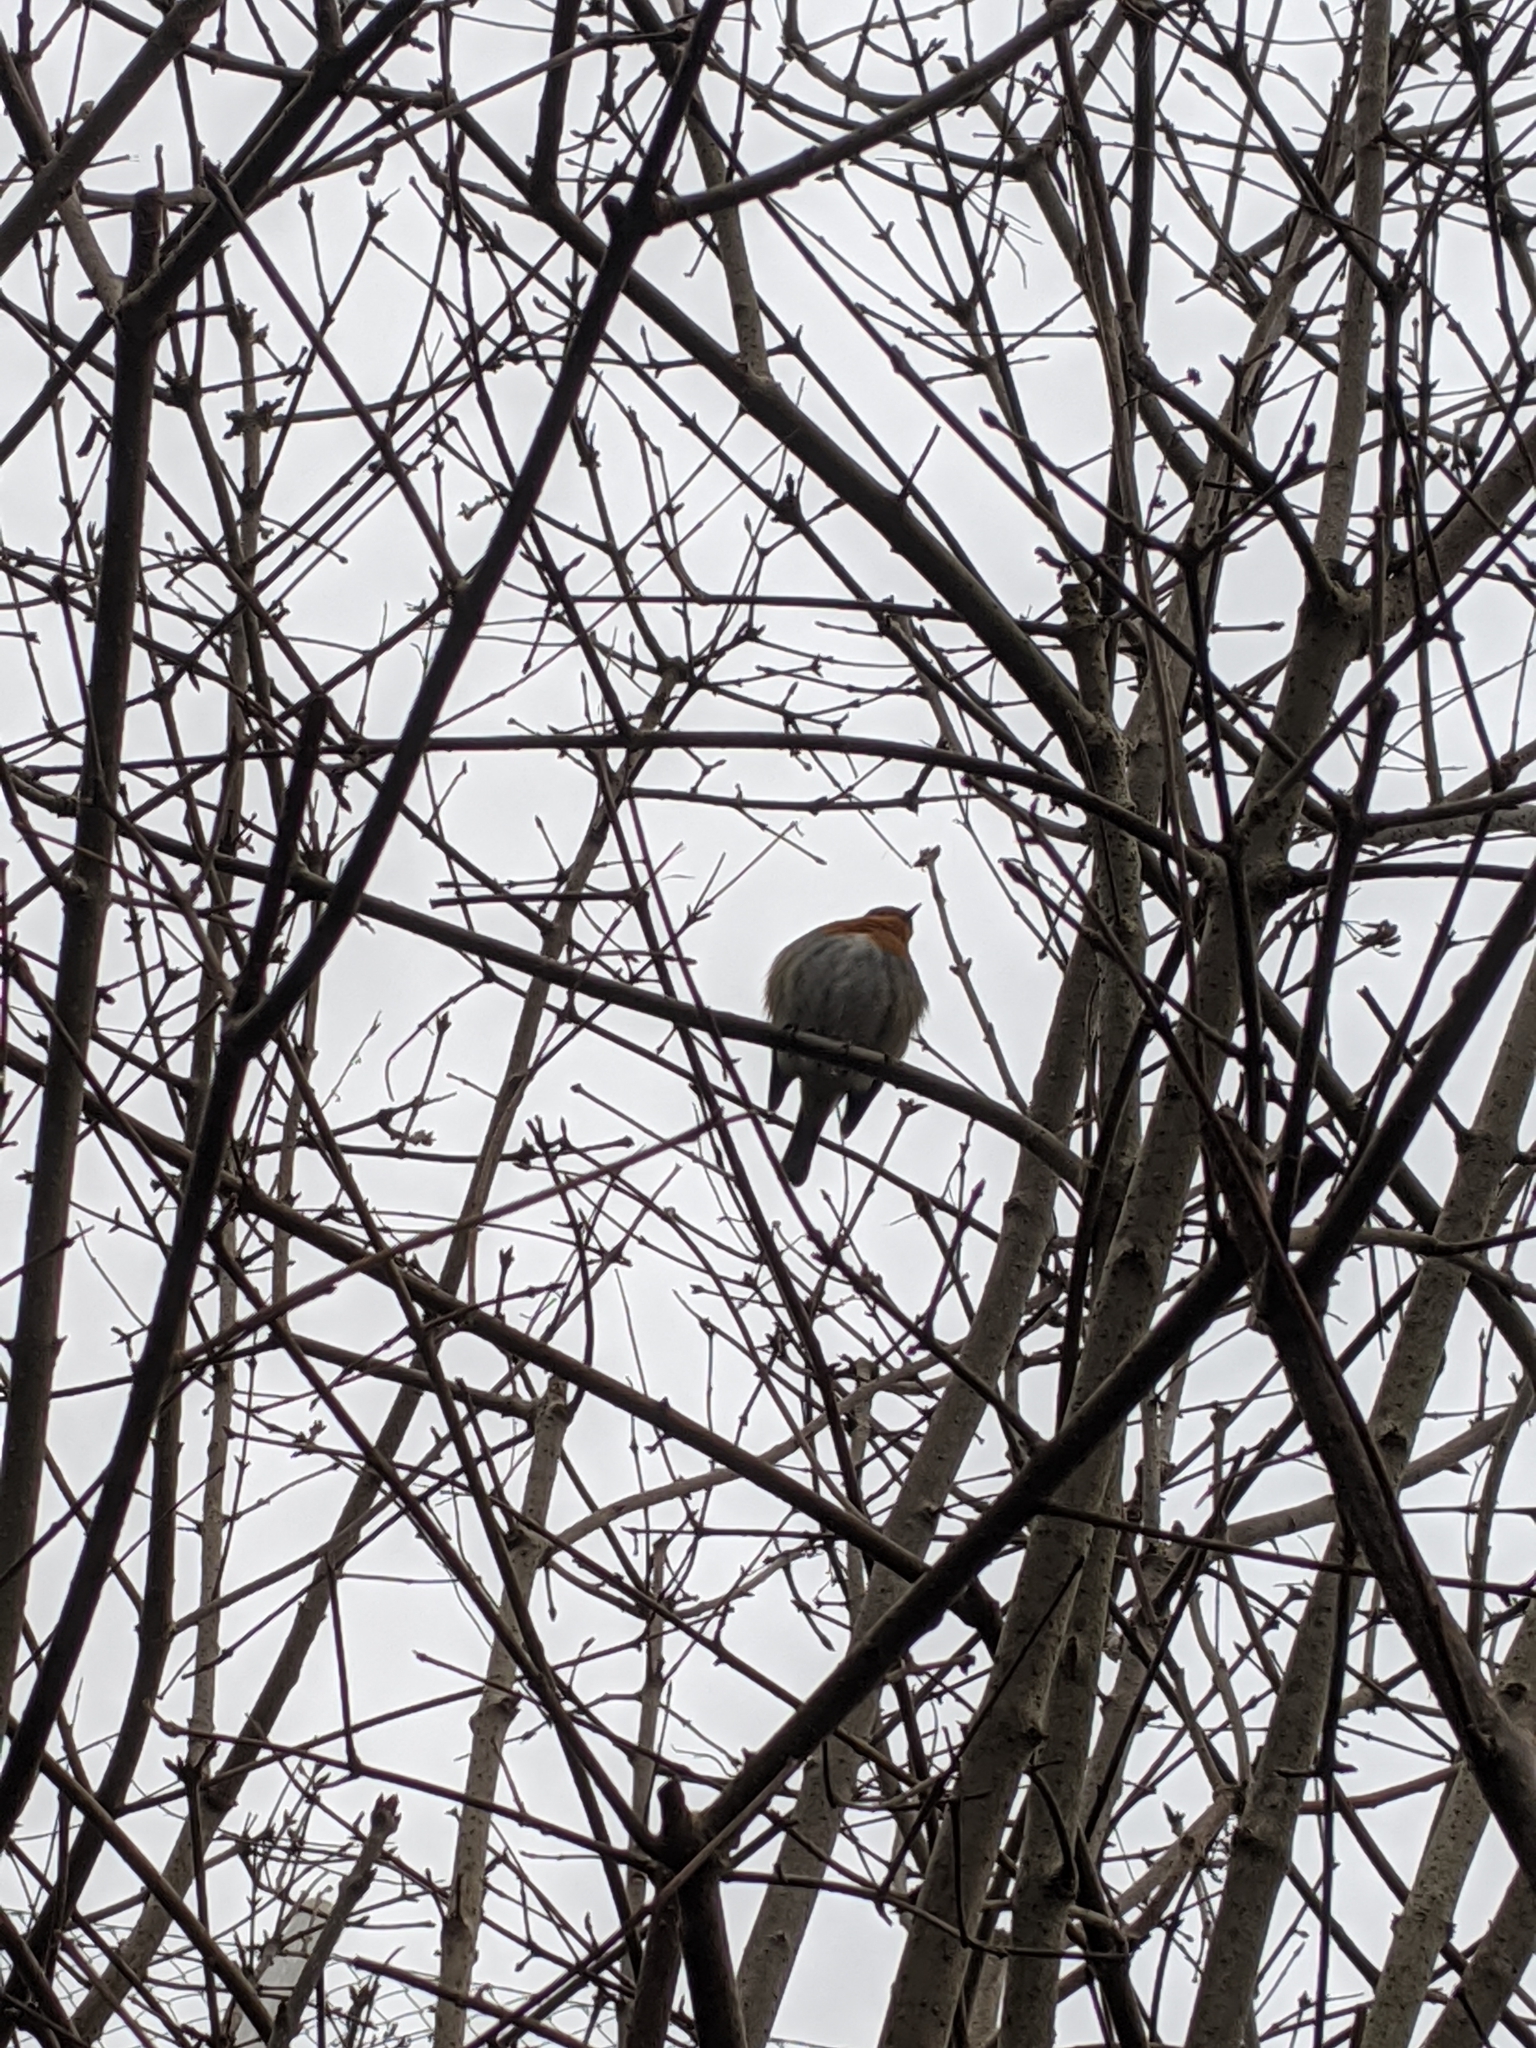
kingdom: Animalia
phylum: Chordata
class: Aves
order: Passeriformes
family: Muscicapidae
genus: Erithacus
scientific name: Erithacus rubecula
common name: European robin
